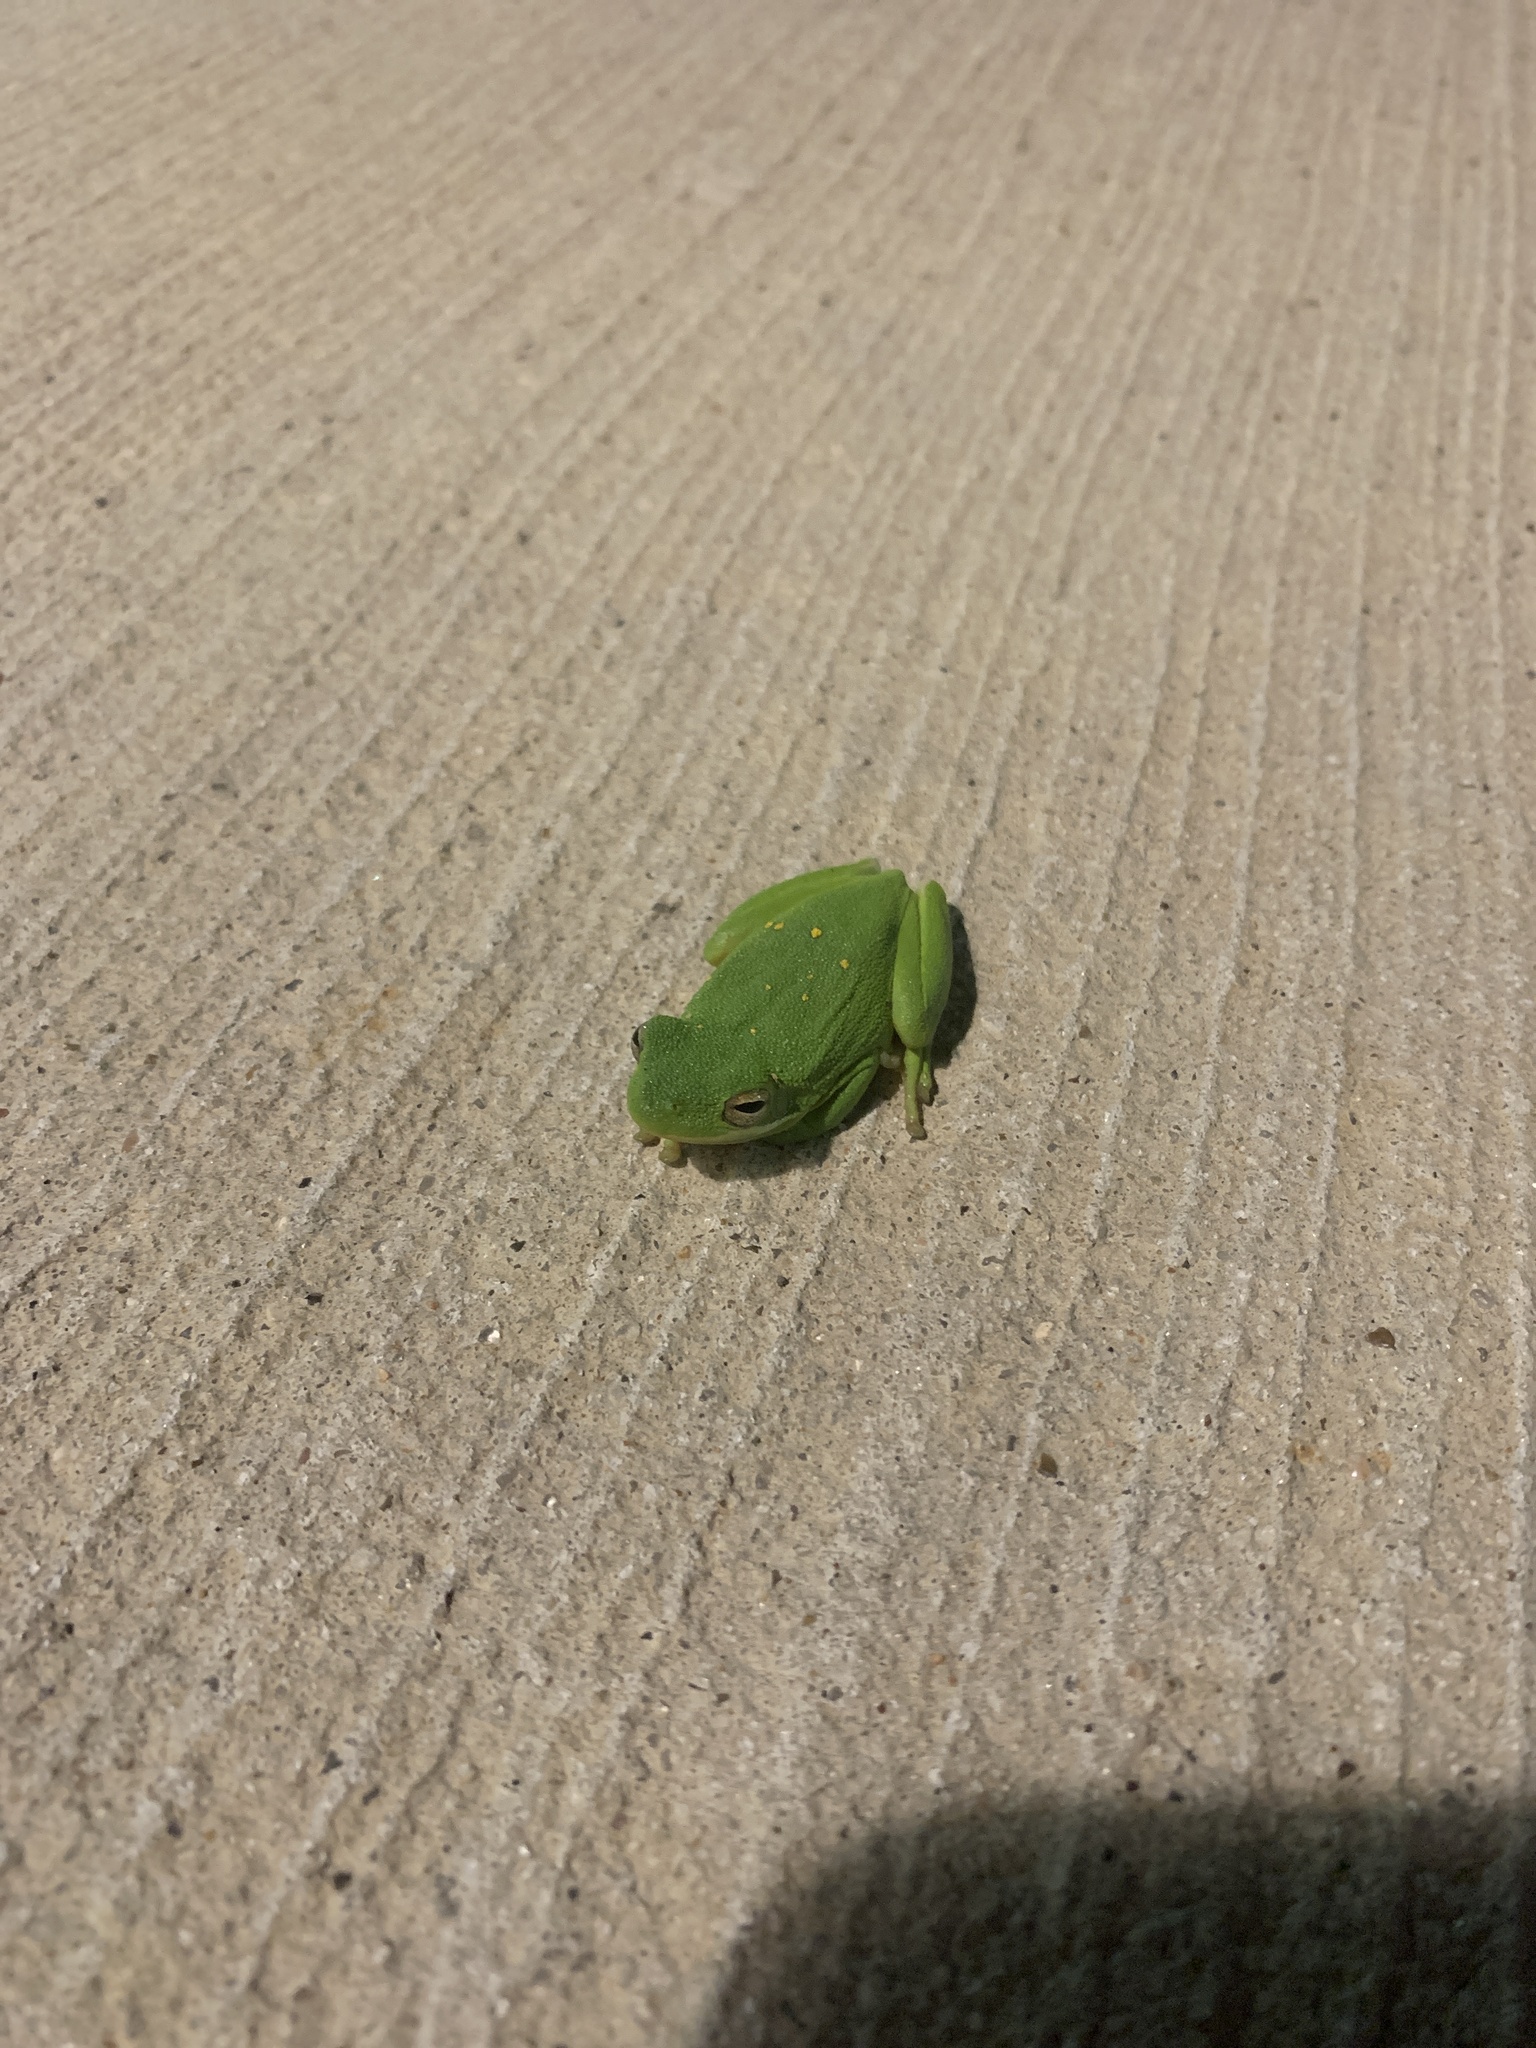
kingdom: Animalia
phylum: Chordata
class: Amphibia
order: Anura
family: Hylidae
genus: Dryophytes
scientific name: Dryophytes cinereus
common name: Green treefrog
